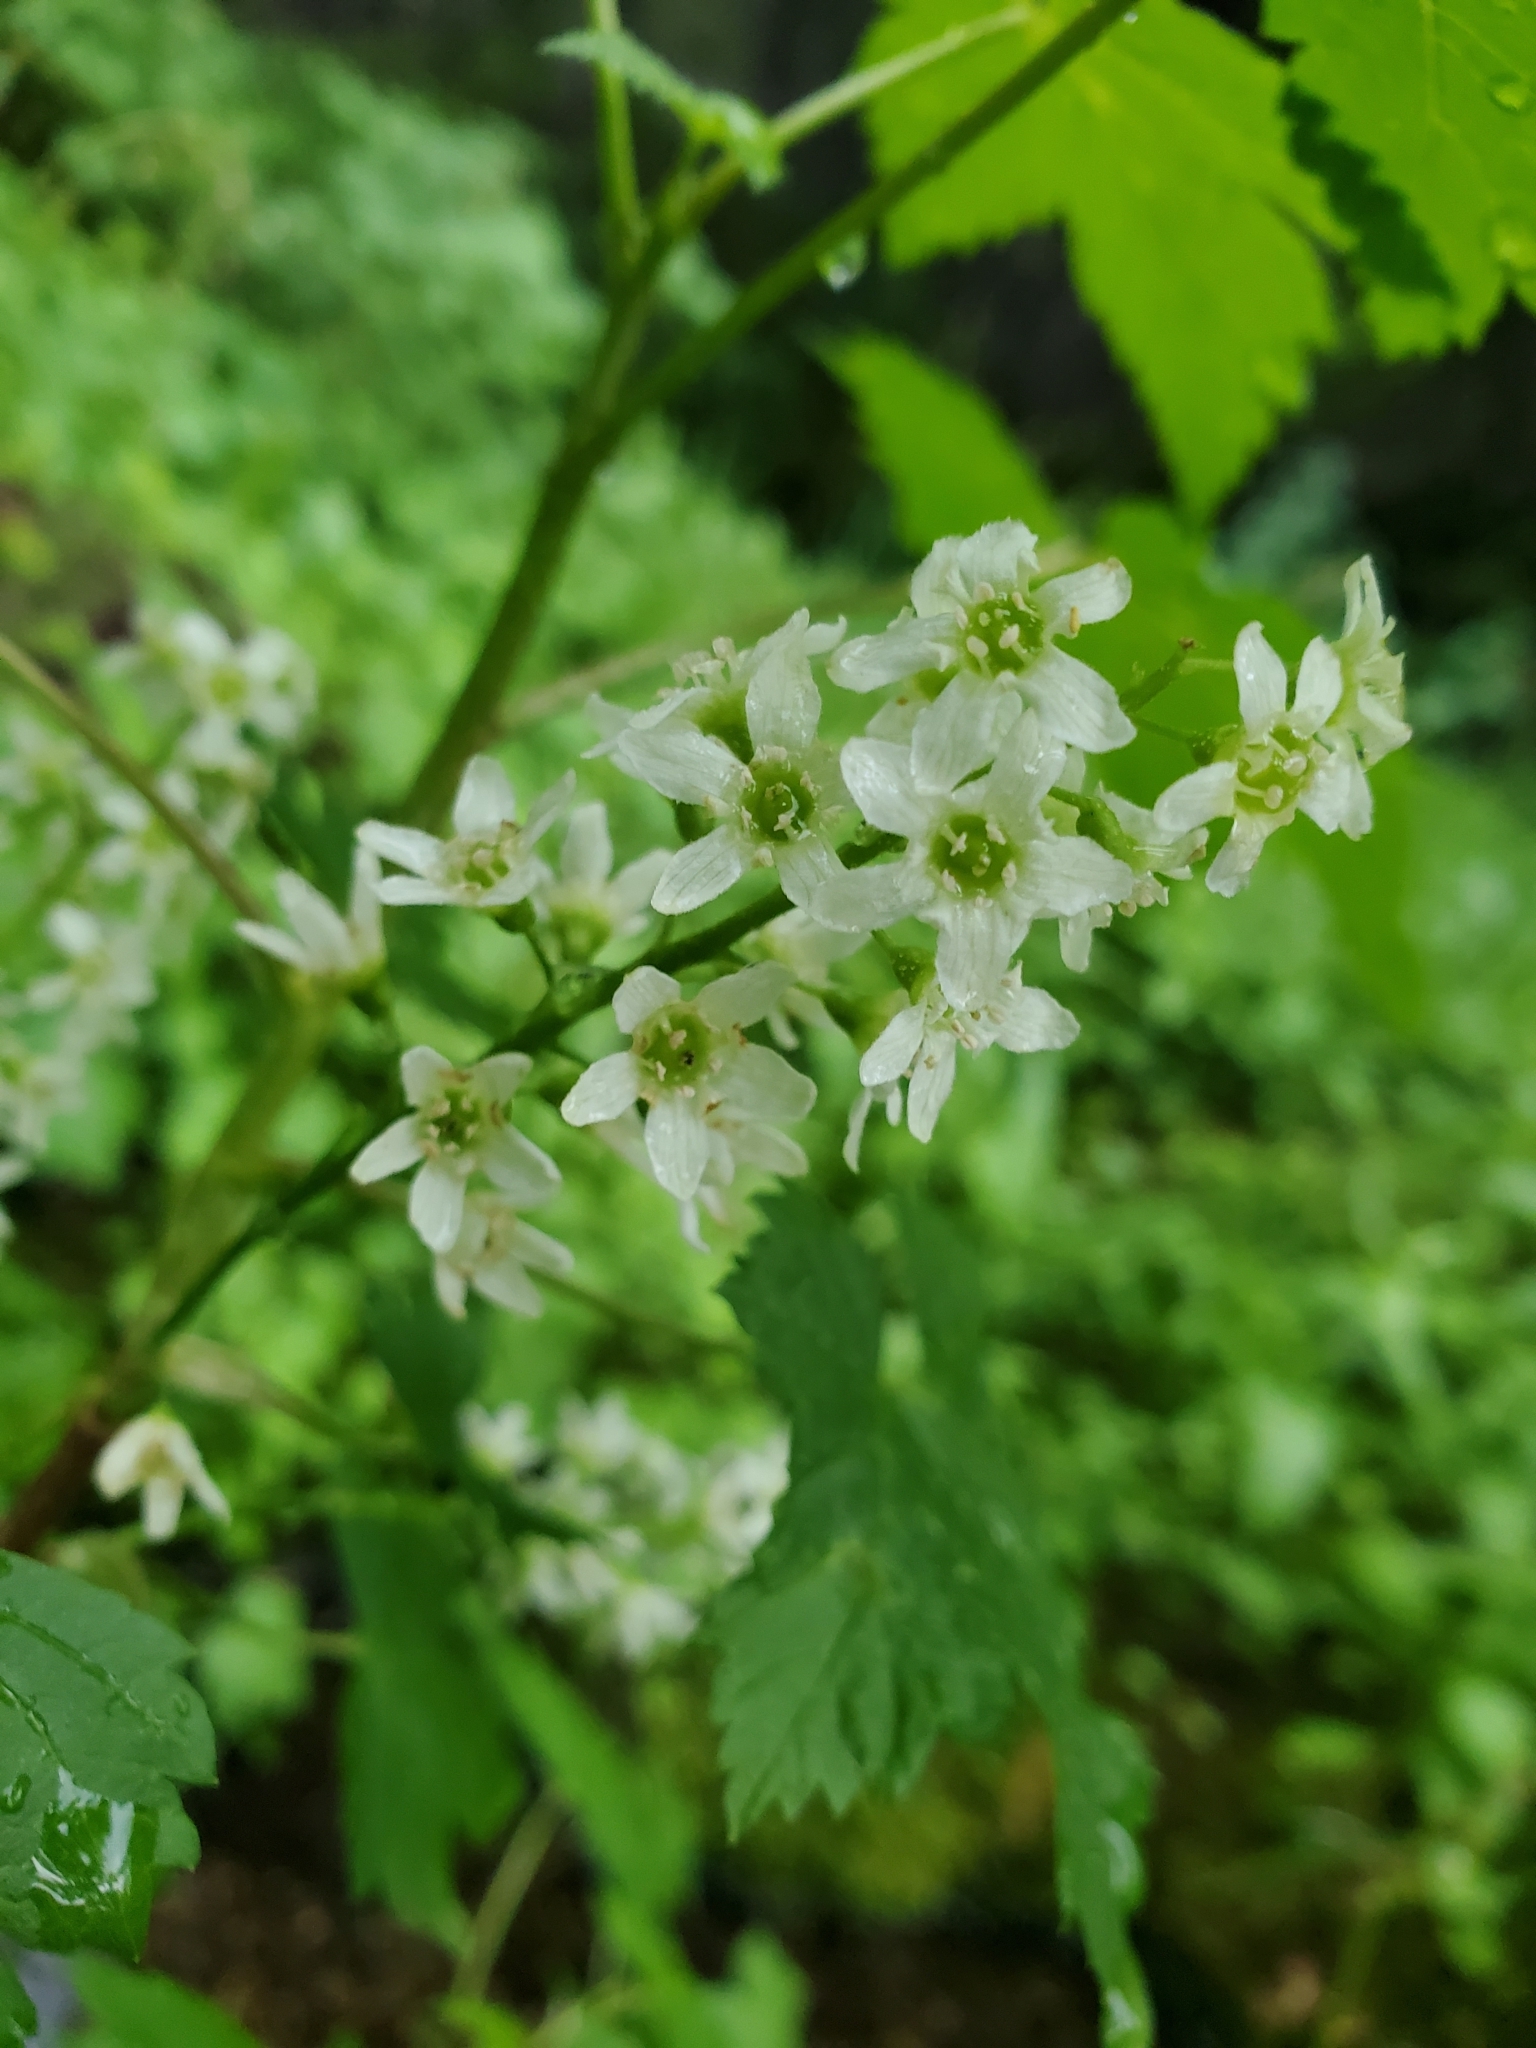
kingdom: Plantae
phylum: Tracheophyta
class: Magnoliopsida
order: Saxifragales
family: Grossulariaceae
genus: Ribes
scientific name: Ribes hudsonianum
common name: Northern black currant
